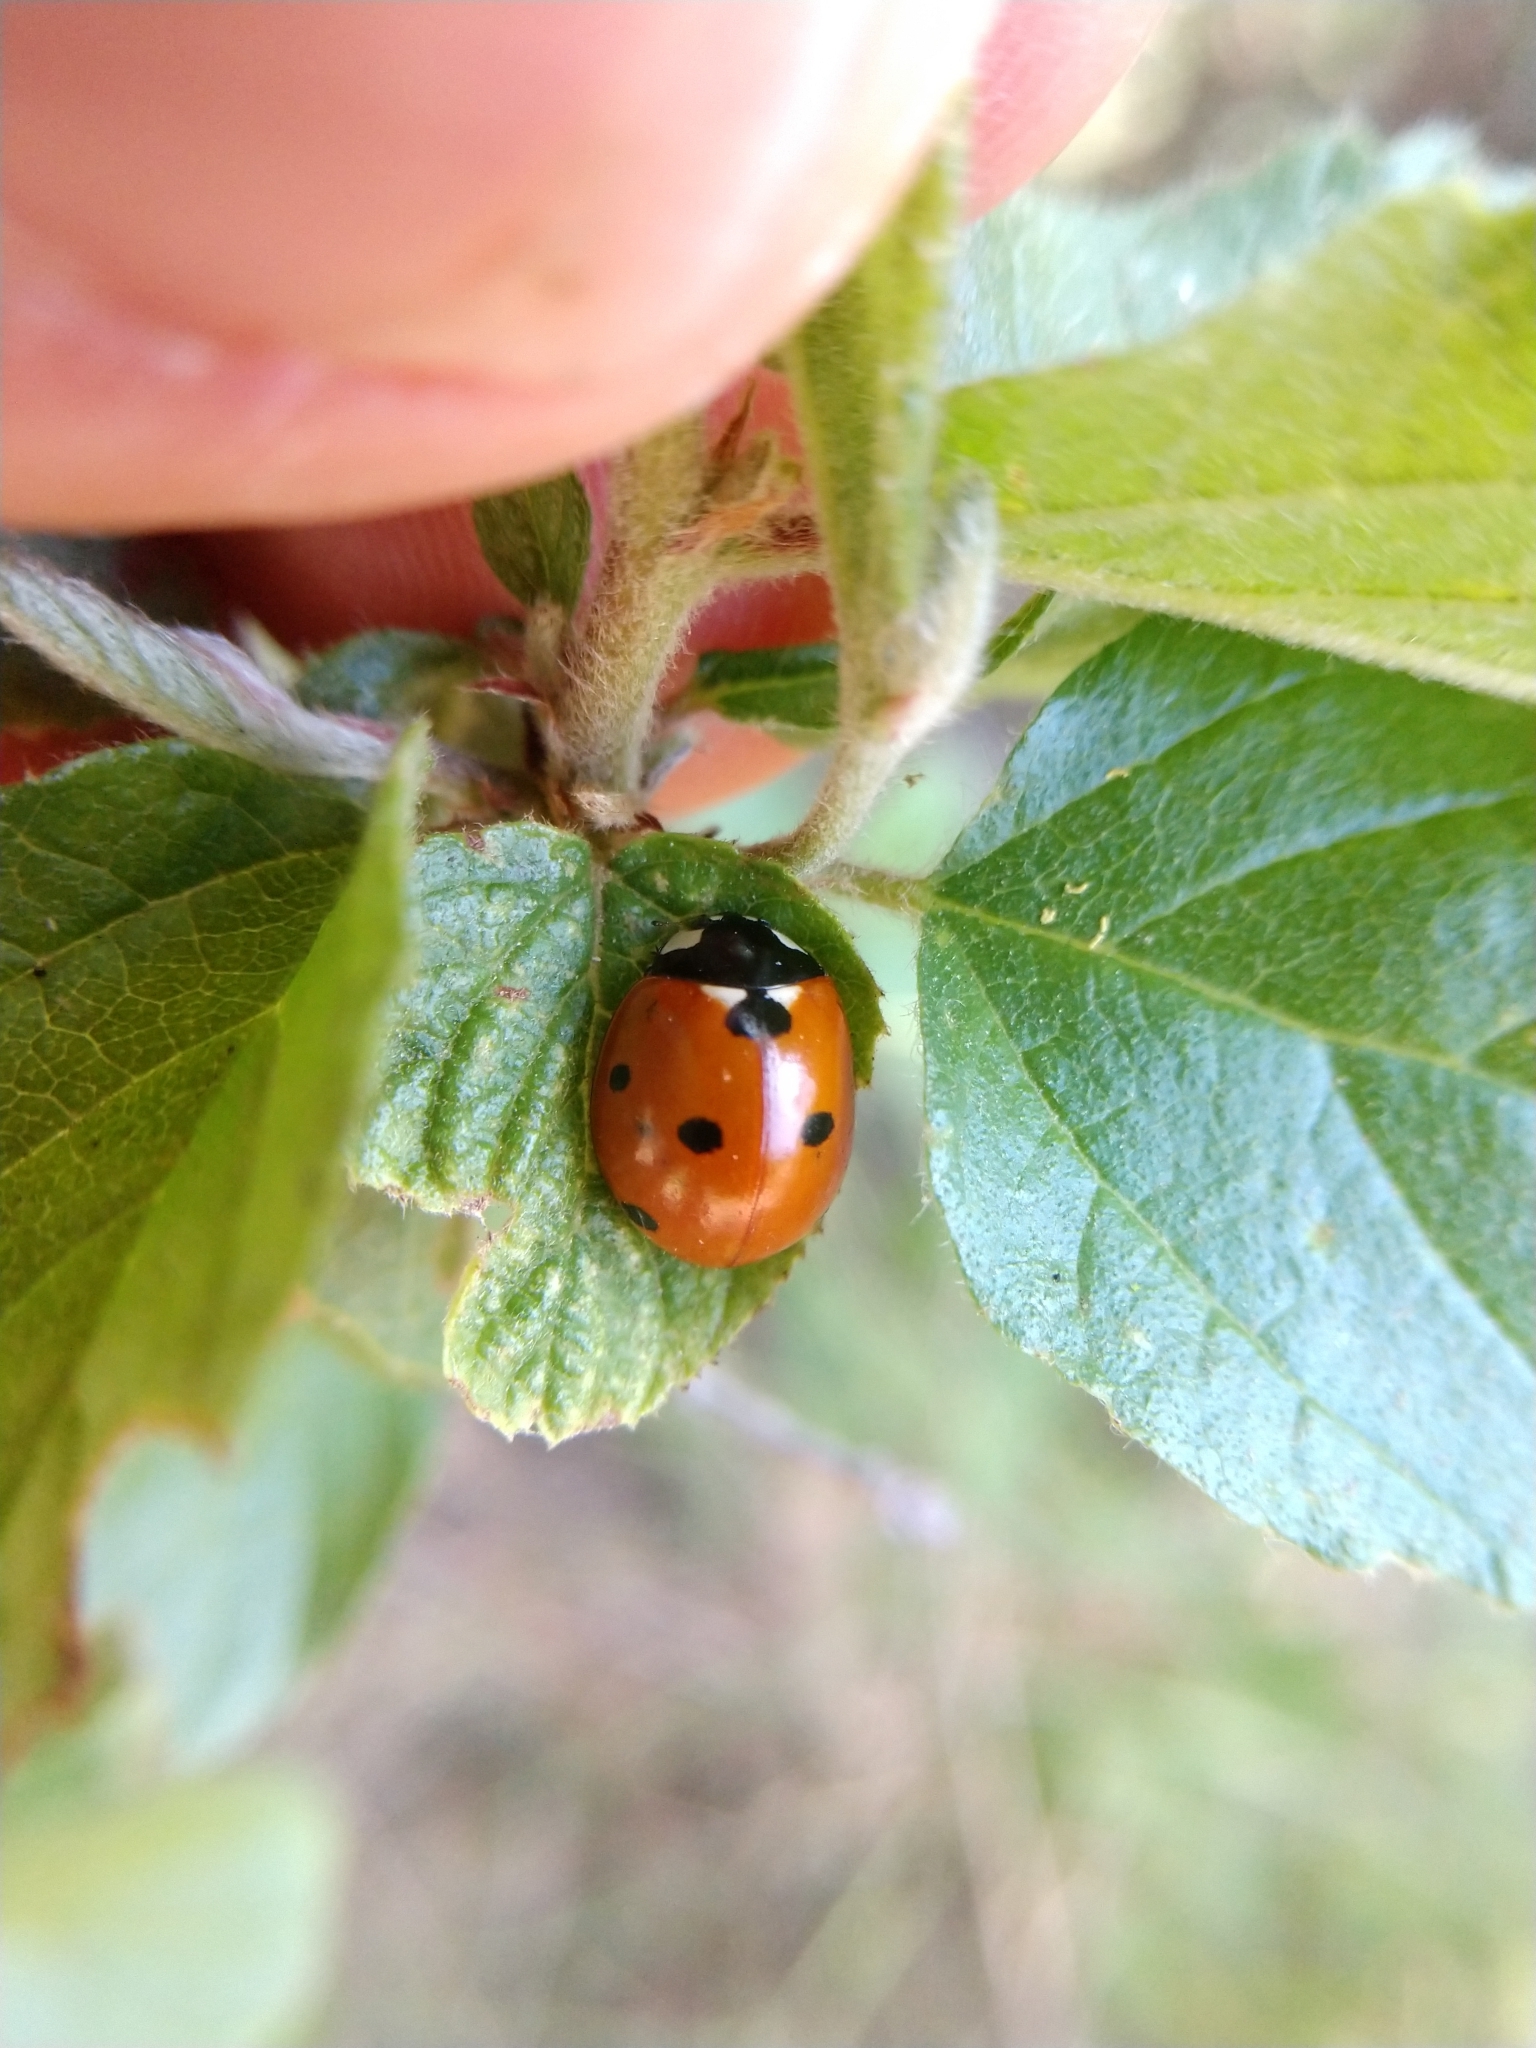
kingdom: Animalia
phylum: Arthropoda
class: Insecta
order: Coleoptera
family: Coccinellidae
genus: Coccinella
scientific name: Coccinella septempunctata
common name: Sevenspotted lady beetle
